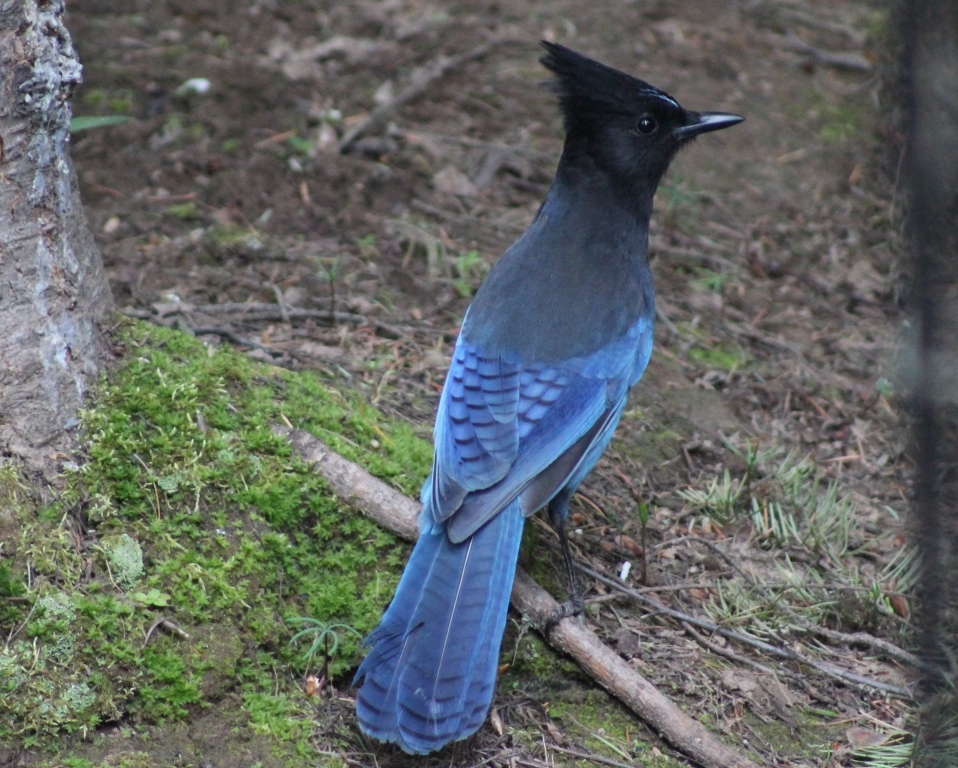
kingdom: Animalia
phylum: Chordata
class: Aves
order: Passeriformes
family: Corvidae
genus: Cyanocitta
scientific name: Cyanocitta stelleri
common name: Steller's jay
